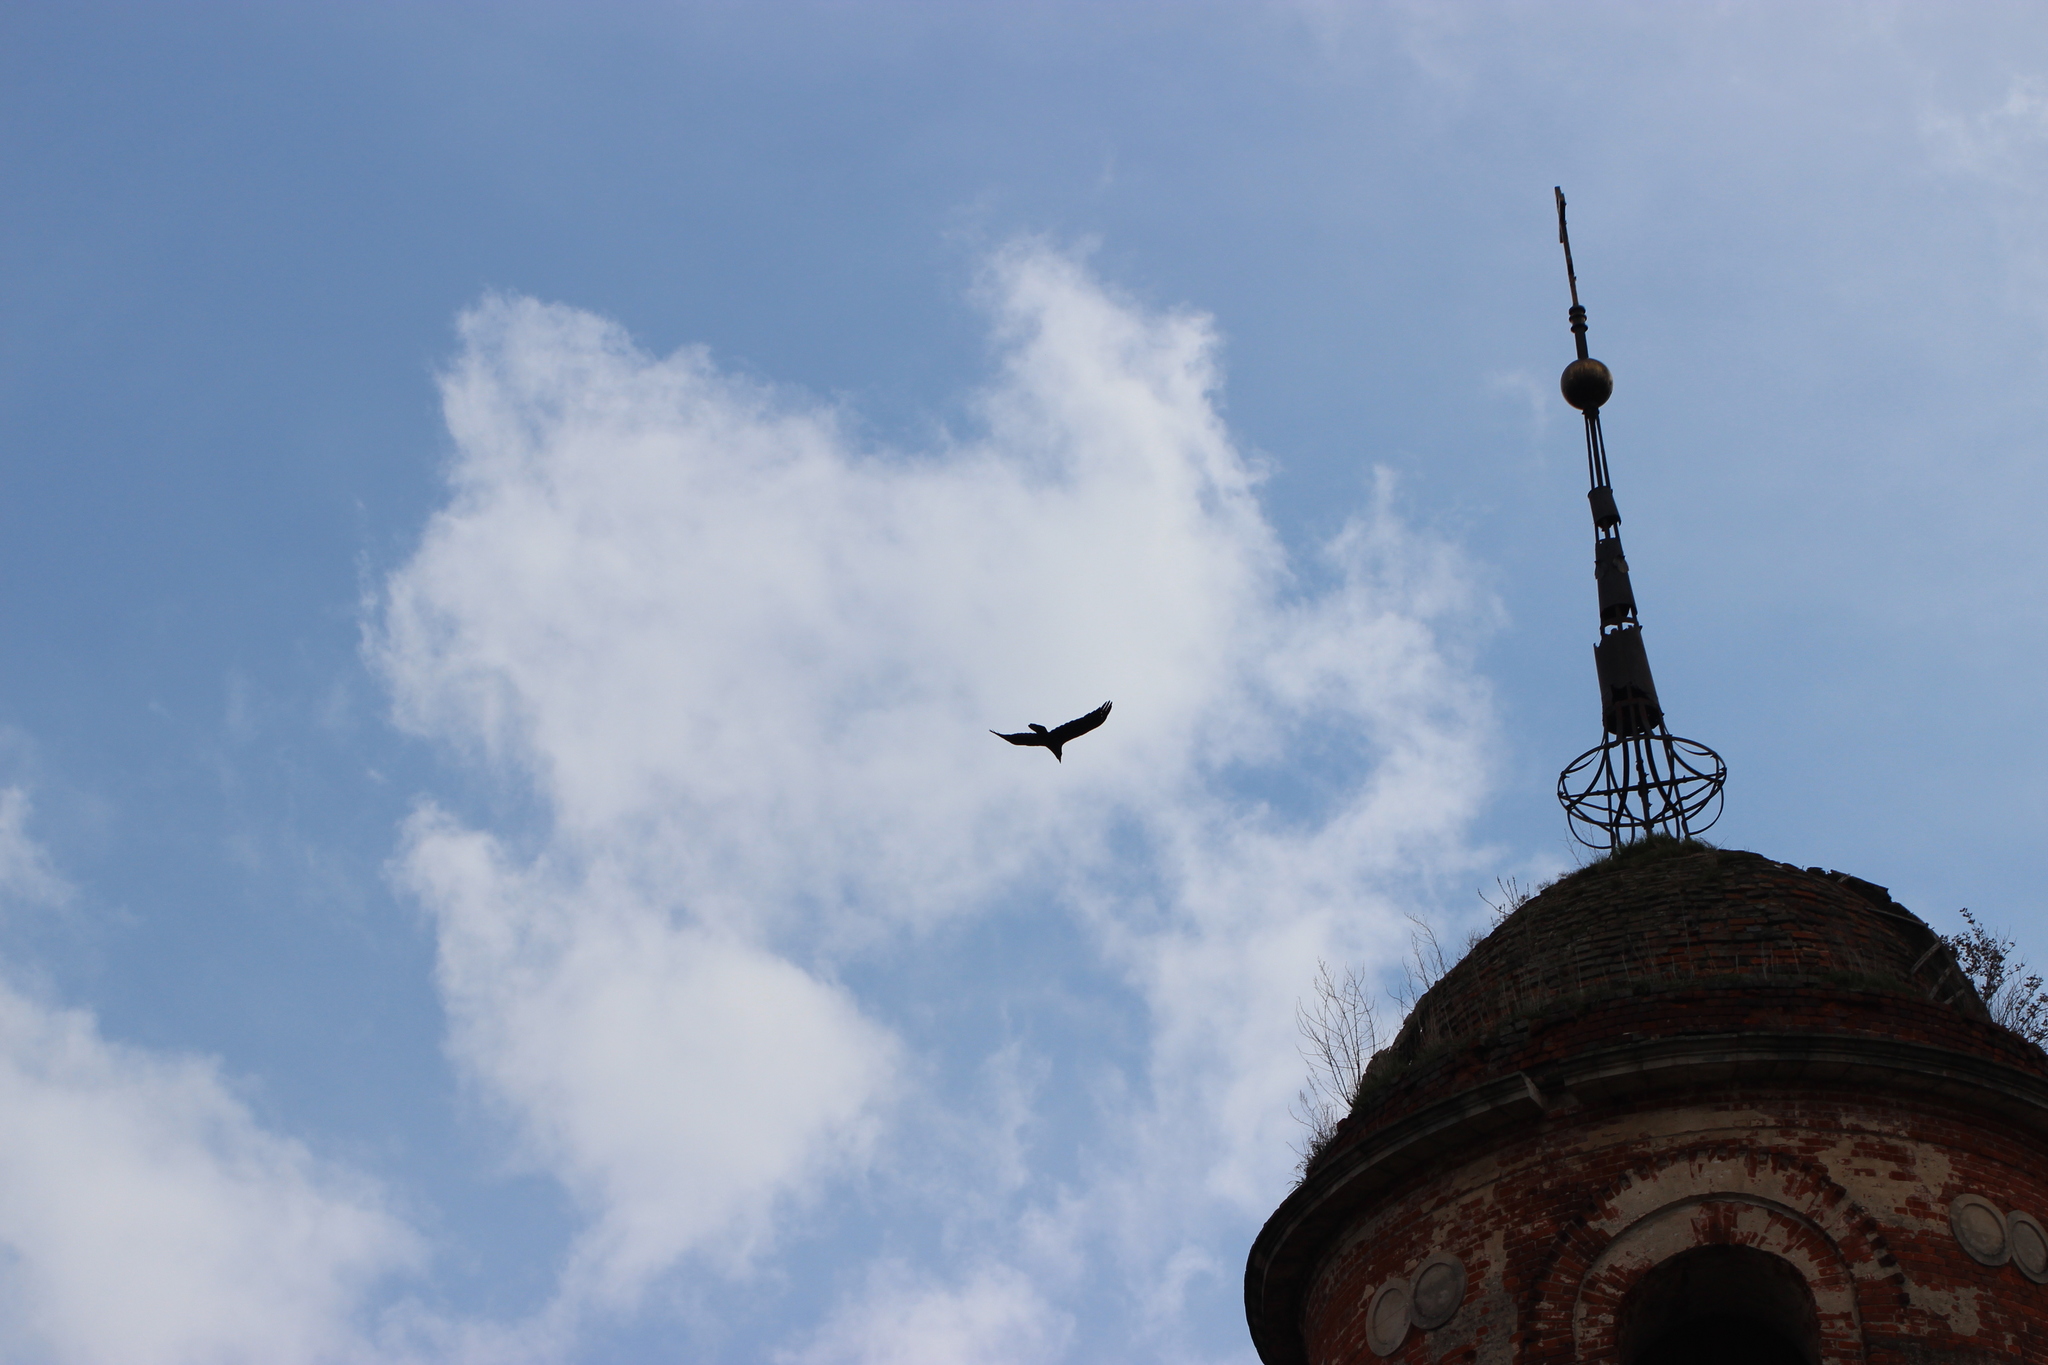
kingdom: Animalia
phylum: Chordata
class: Aves
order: Passeriformes
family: Corvidae
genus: Corvus
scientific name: Corvus corax
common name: Common raven
